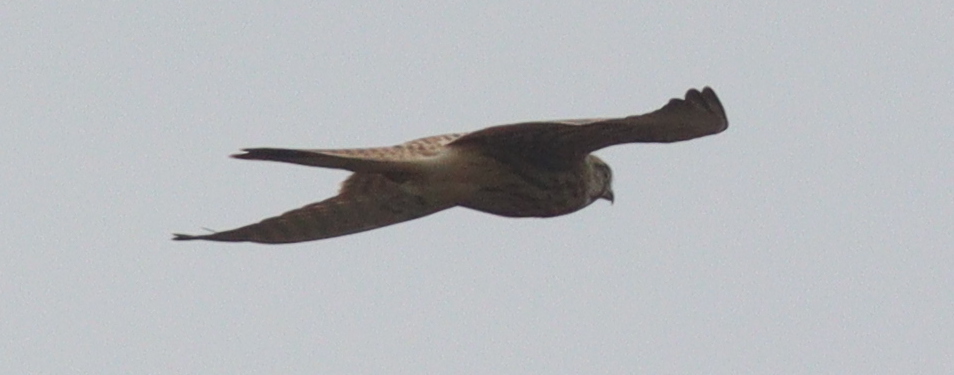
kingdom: Animalia
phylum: Chordata
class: Aves
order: Falconiformes
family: Falconidae
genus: Falco
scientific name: Falco tinnunculus
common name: Common kestrel
